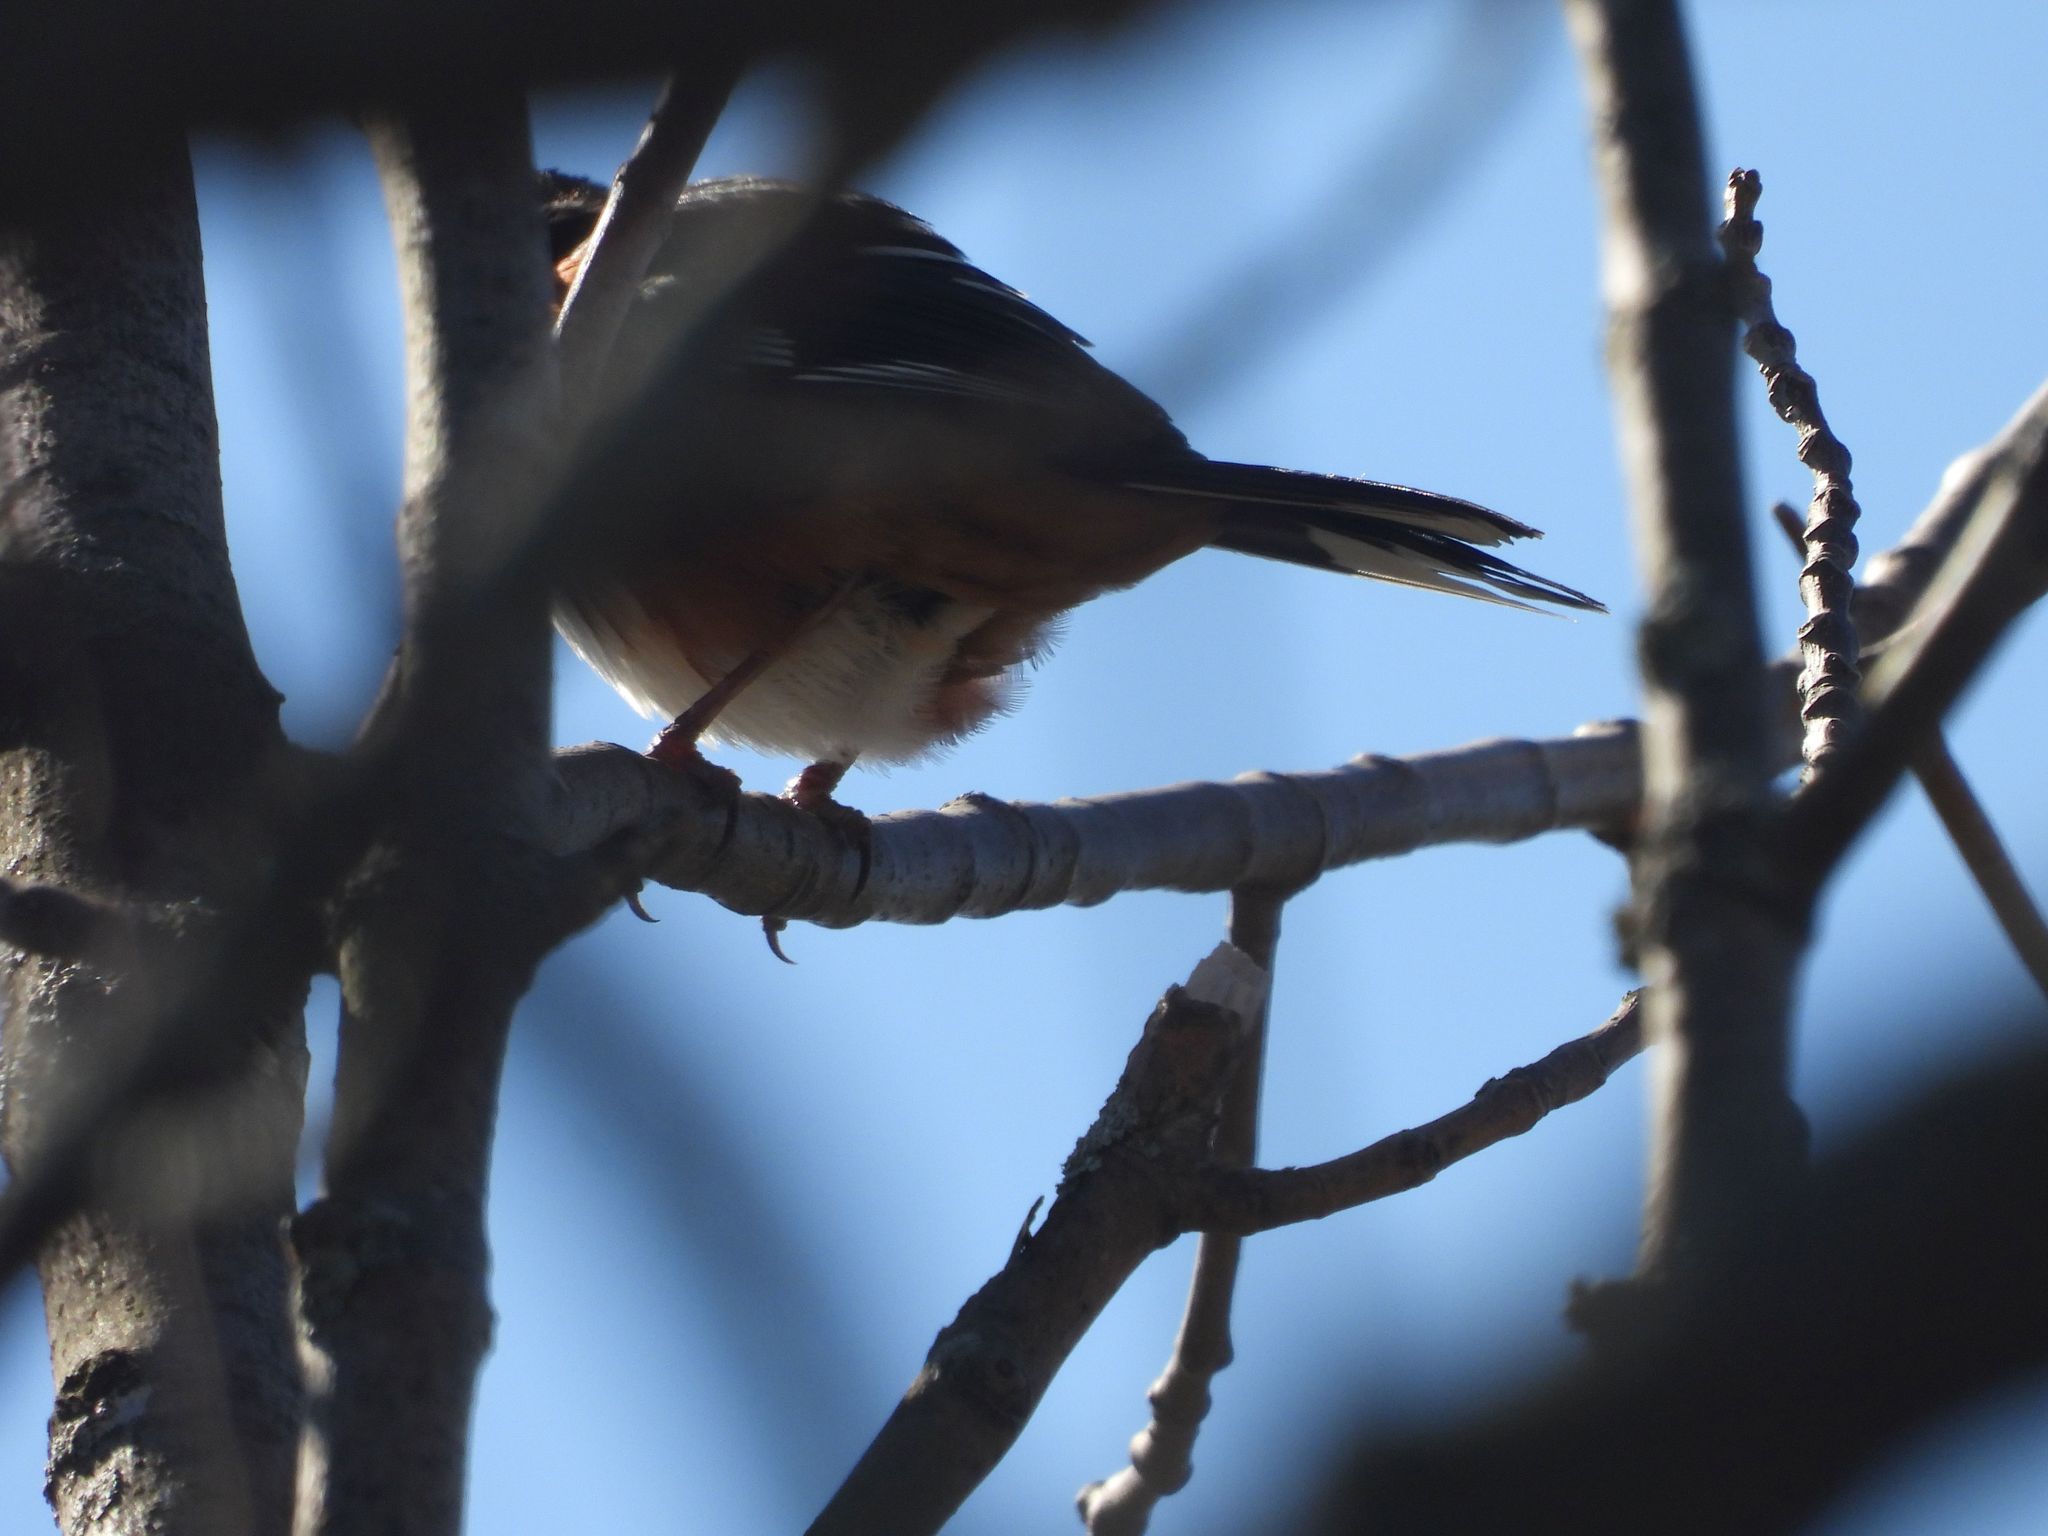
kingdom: Animalia
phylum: Chordata
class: Aves
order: Passeriformes
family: Passerellidae
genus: Pipilo
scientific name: Pipilo erythrophthalmus
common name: Eastern towhee
